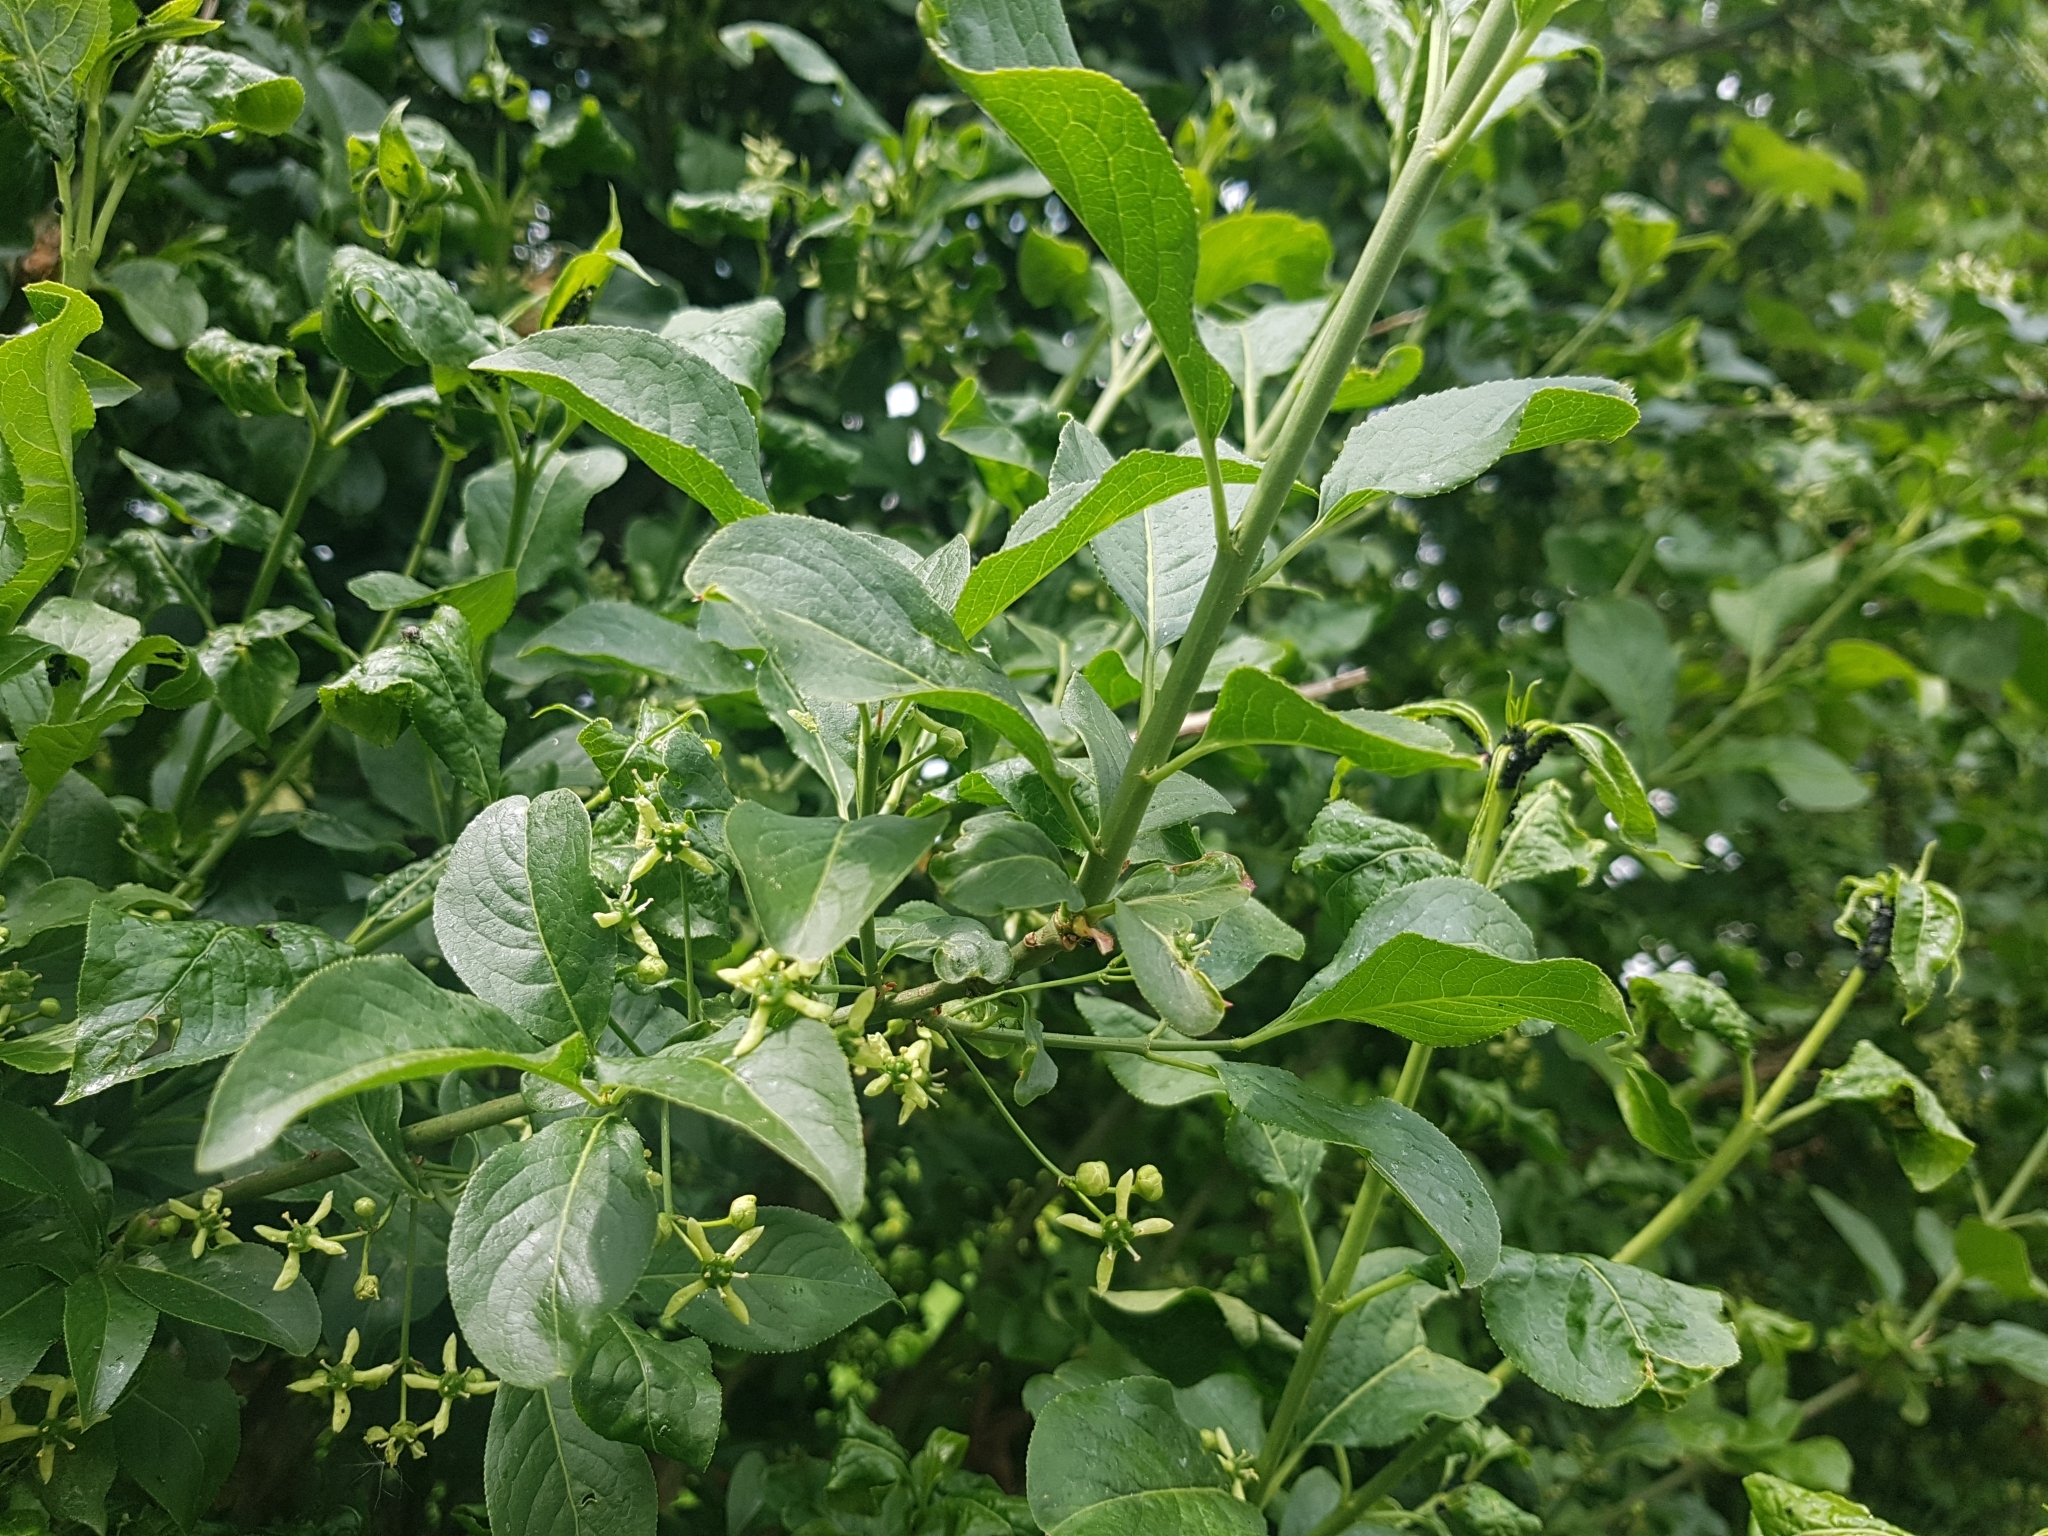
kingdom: Plantae
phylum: Tracheophyta
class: Magnoliopsida
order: Celastrales
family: Celastraceae
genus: Euonymus
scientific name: Euonymus europaeus
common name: Spindle
